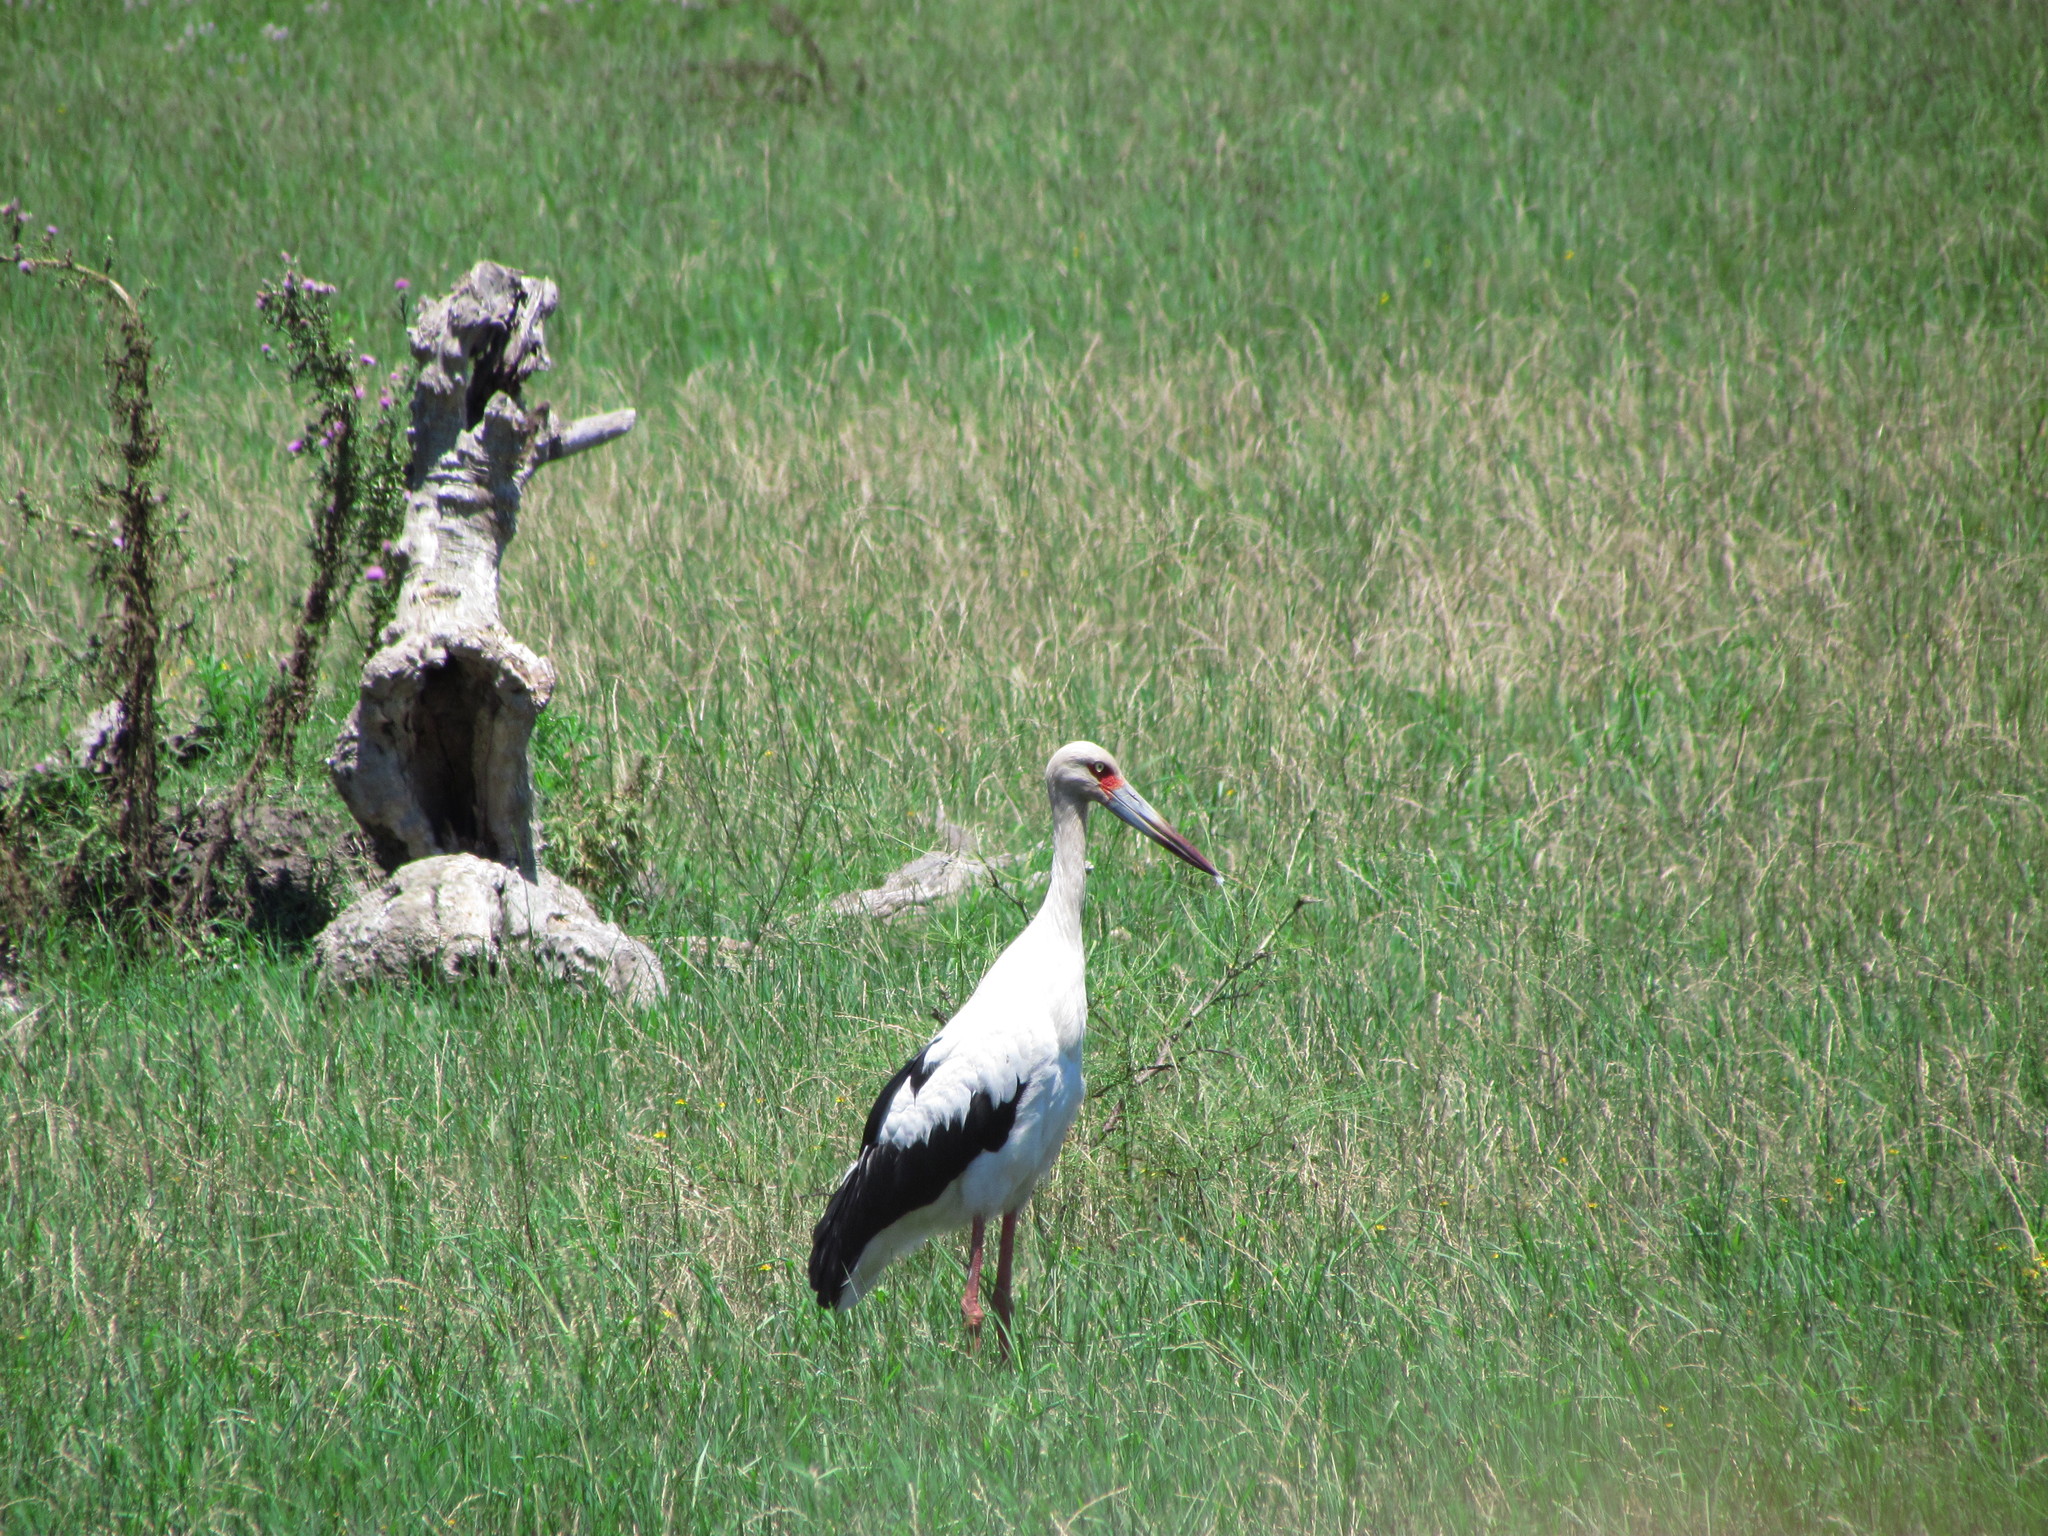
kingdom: Animalia
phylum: Chordata
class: Aves
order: Ciconiiformes
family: Ciconiidae
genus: Ciconia
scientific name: Ciconia maguari
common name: Maguari stork
